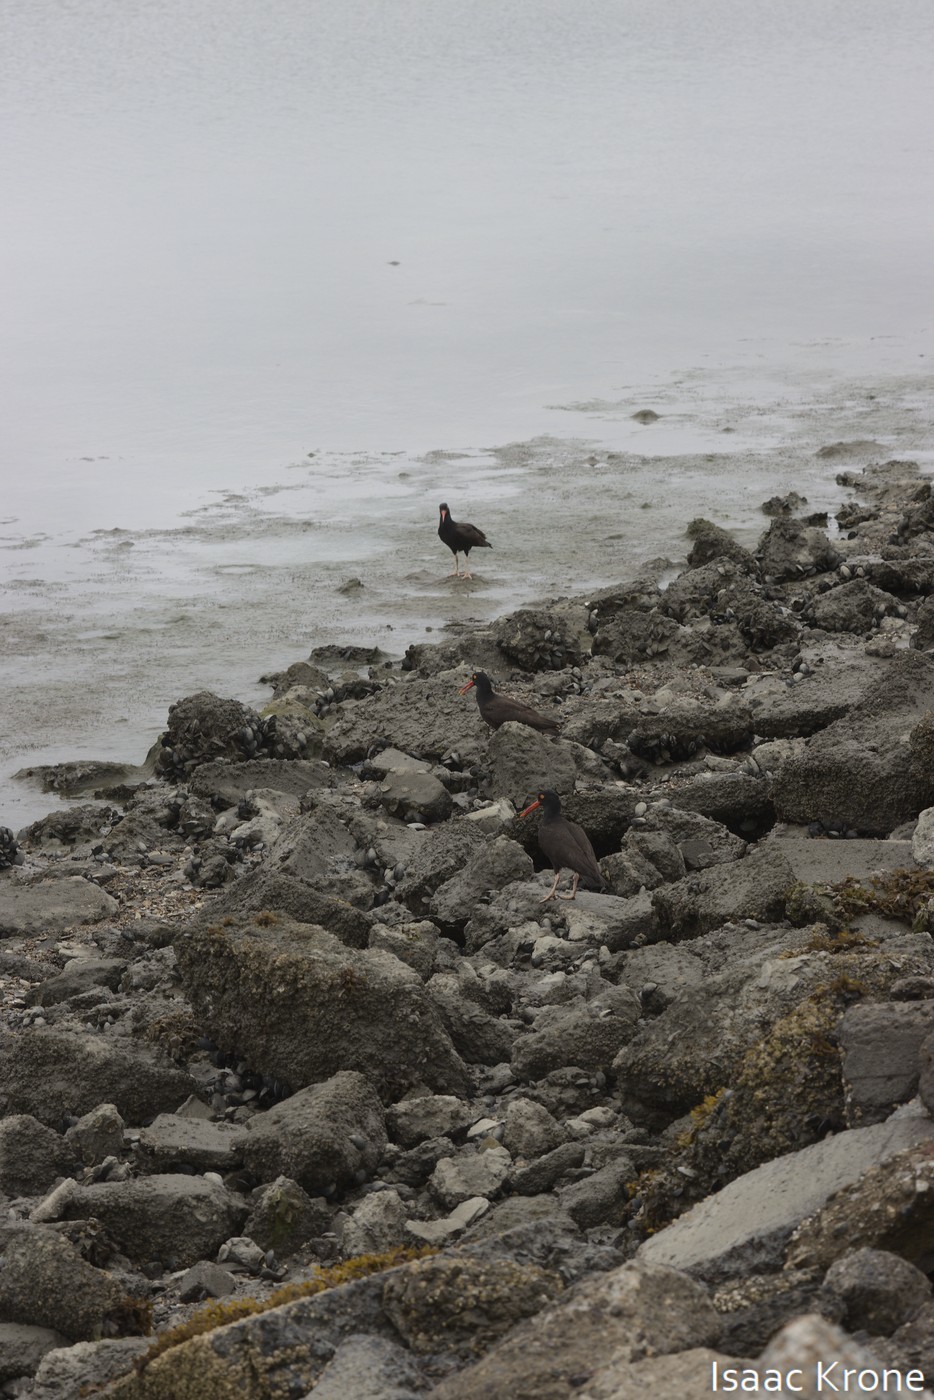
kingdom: Animalia
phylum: Chordata
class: Aves
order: Charadriiformes
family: Haematopodidae
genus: Haematopus
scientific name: Haematopus bachmani
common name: Black oystercatcher
